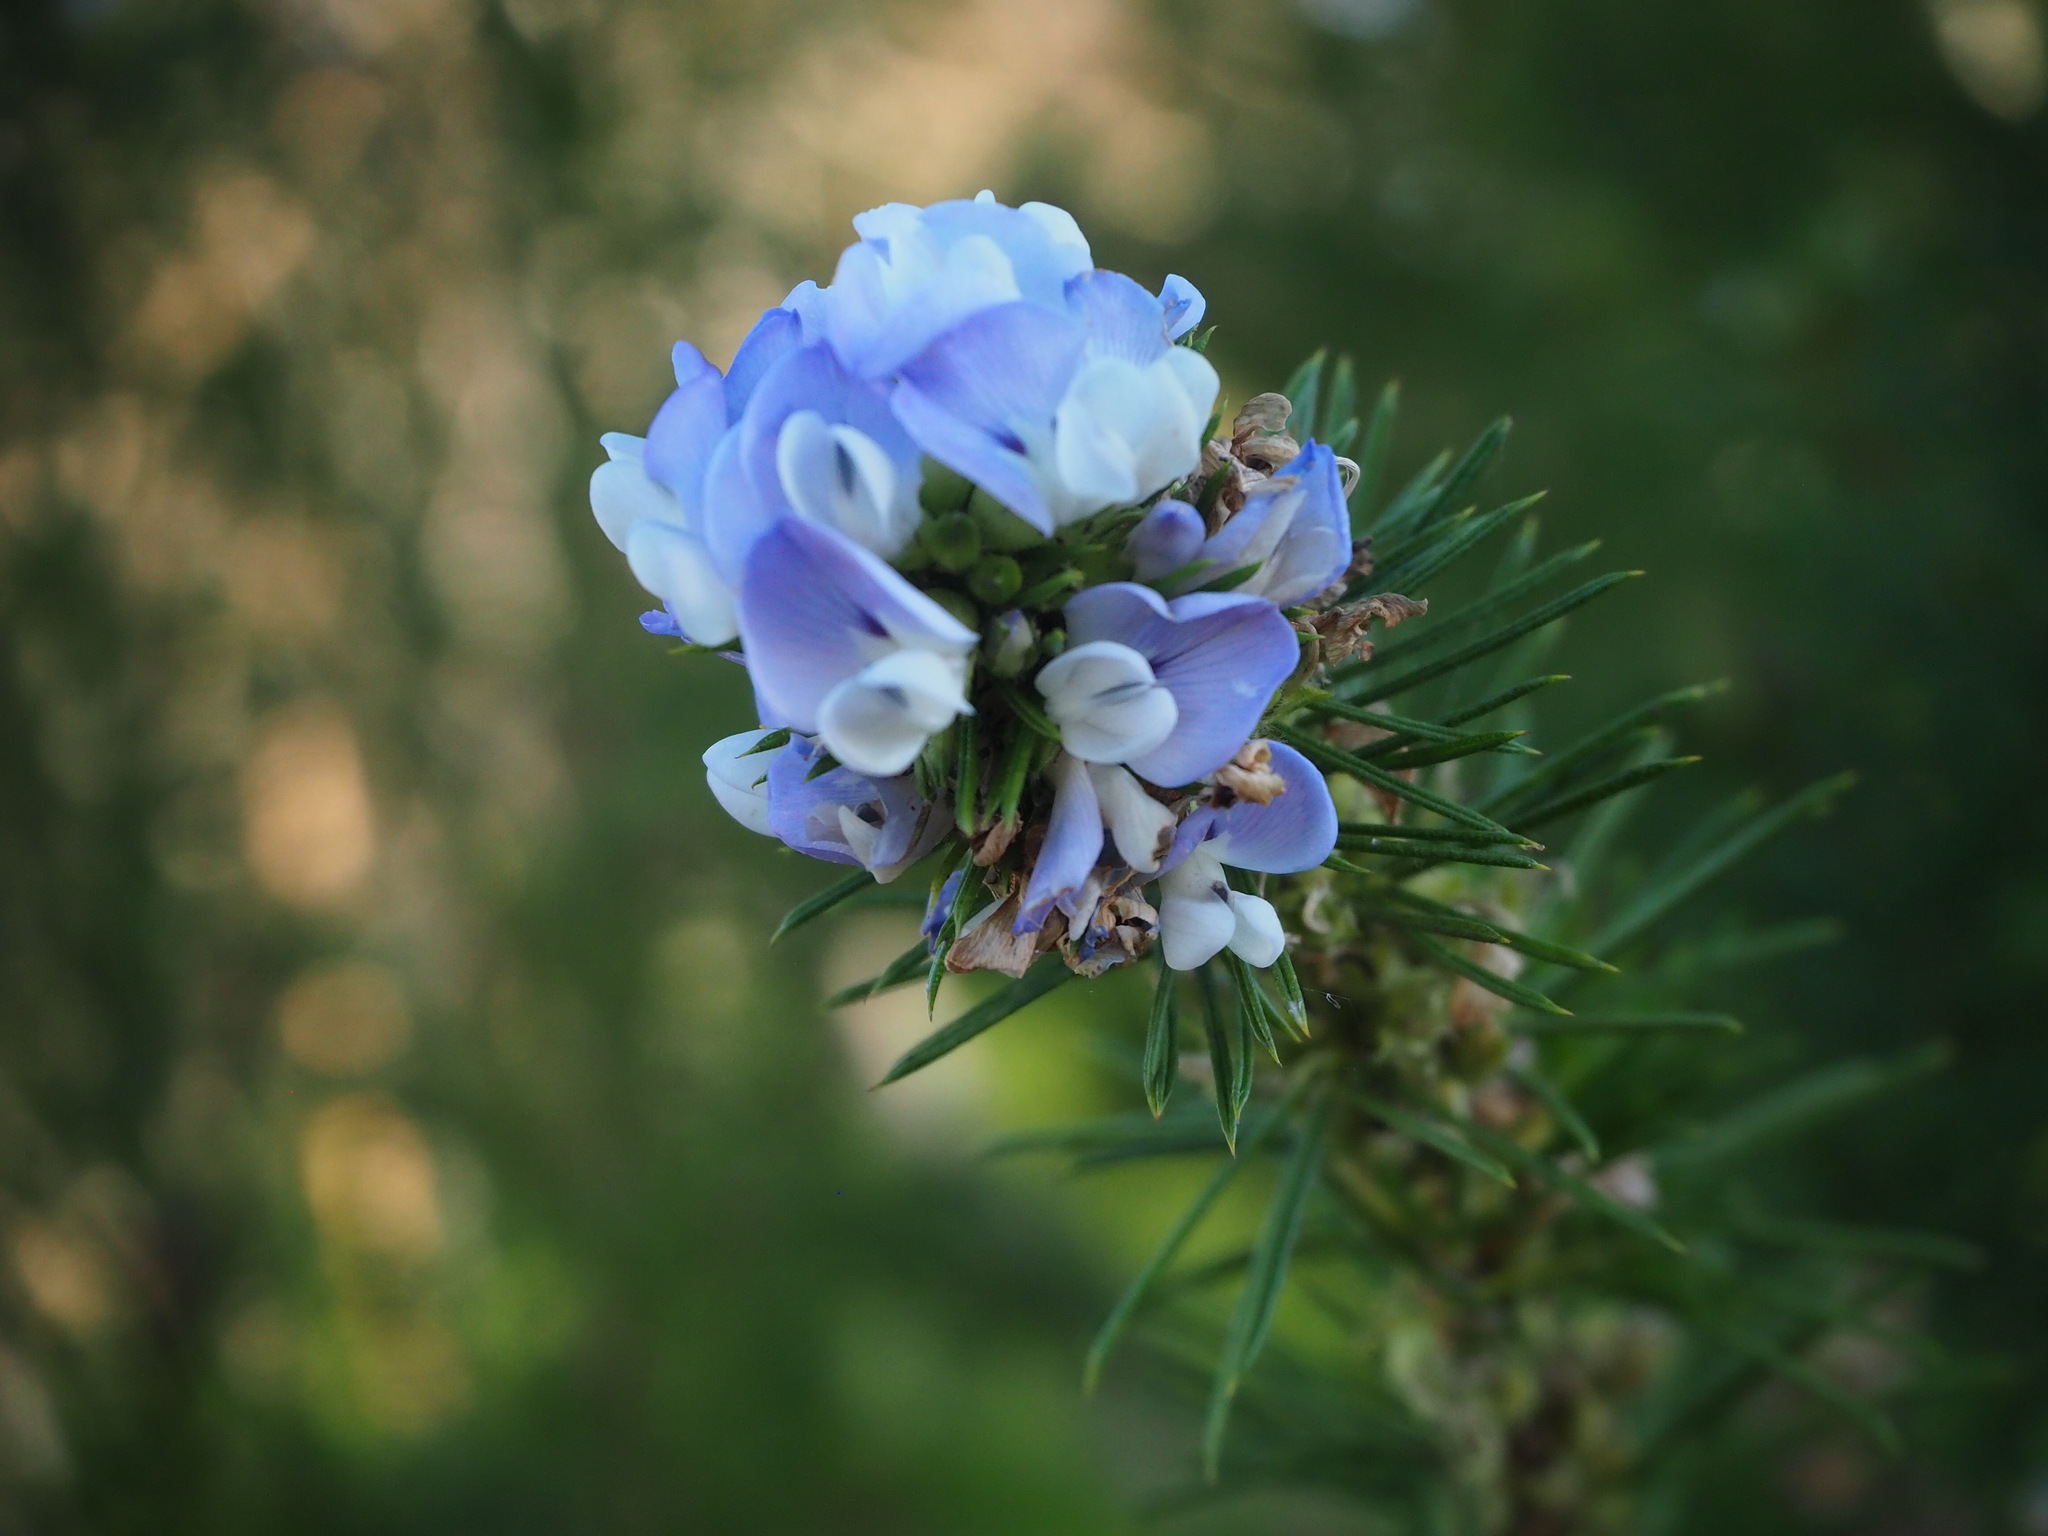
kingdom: Plantae
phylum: Tracheophyta
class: Magnoliopsida
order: Fabales
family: Fabaceae
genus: Psoralea
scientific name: Psoralea pinnata
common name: African scurfpea
